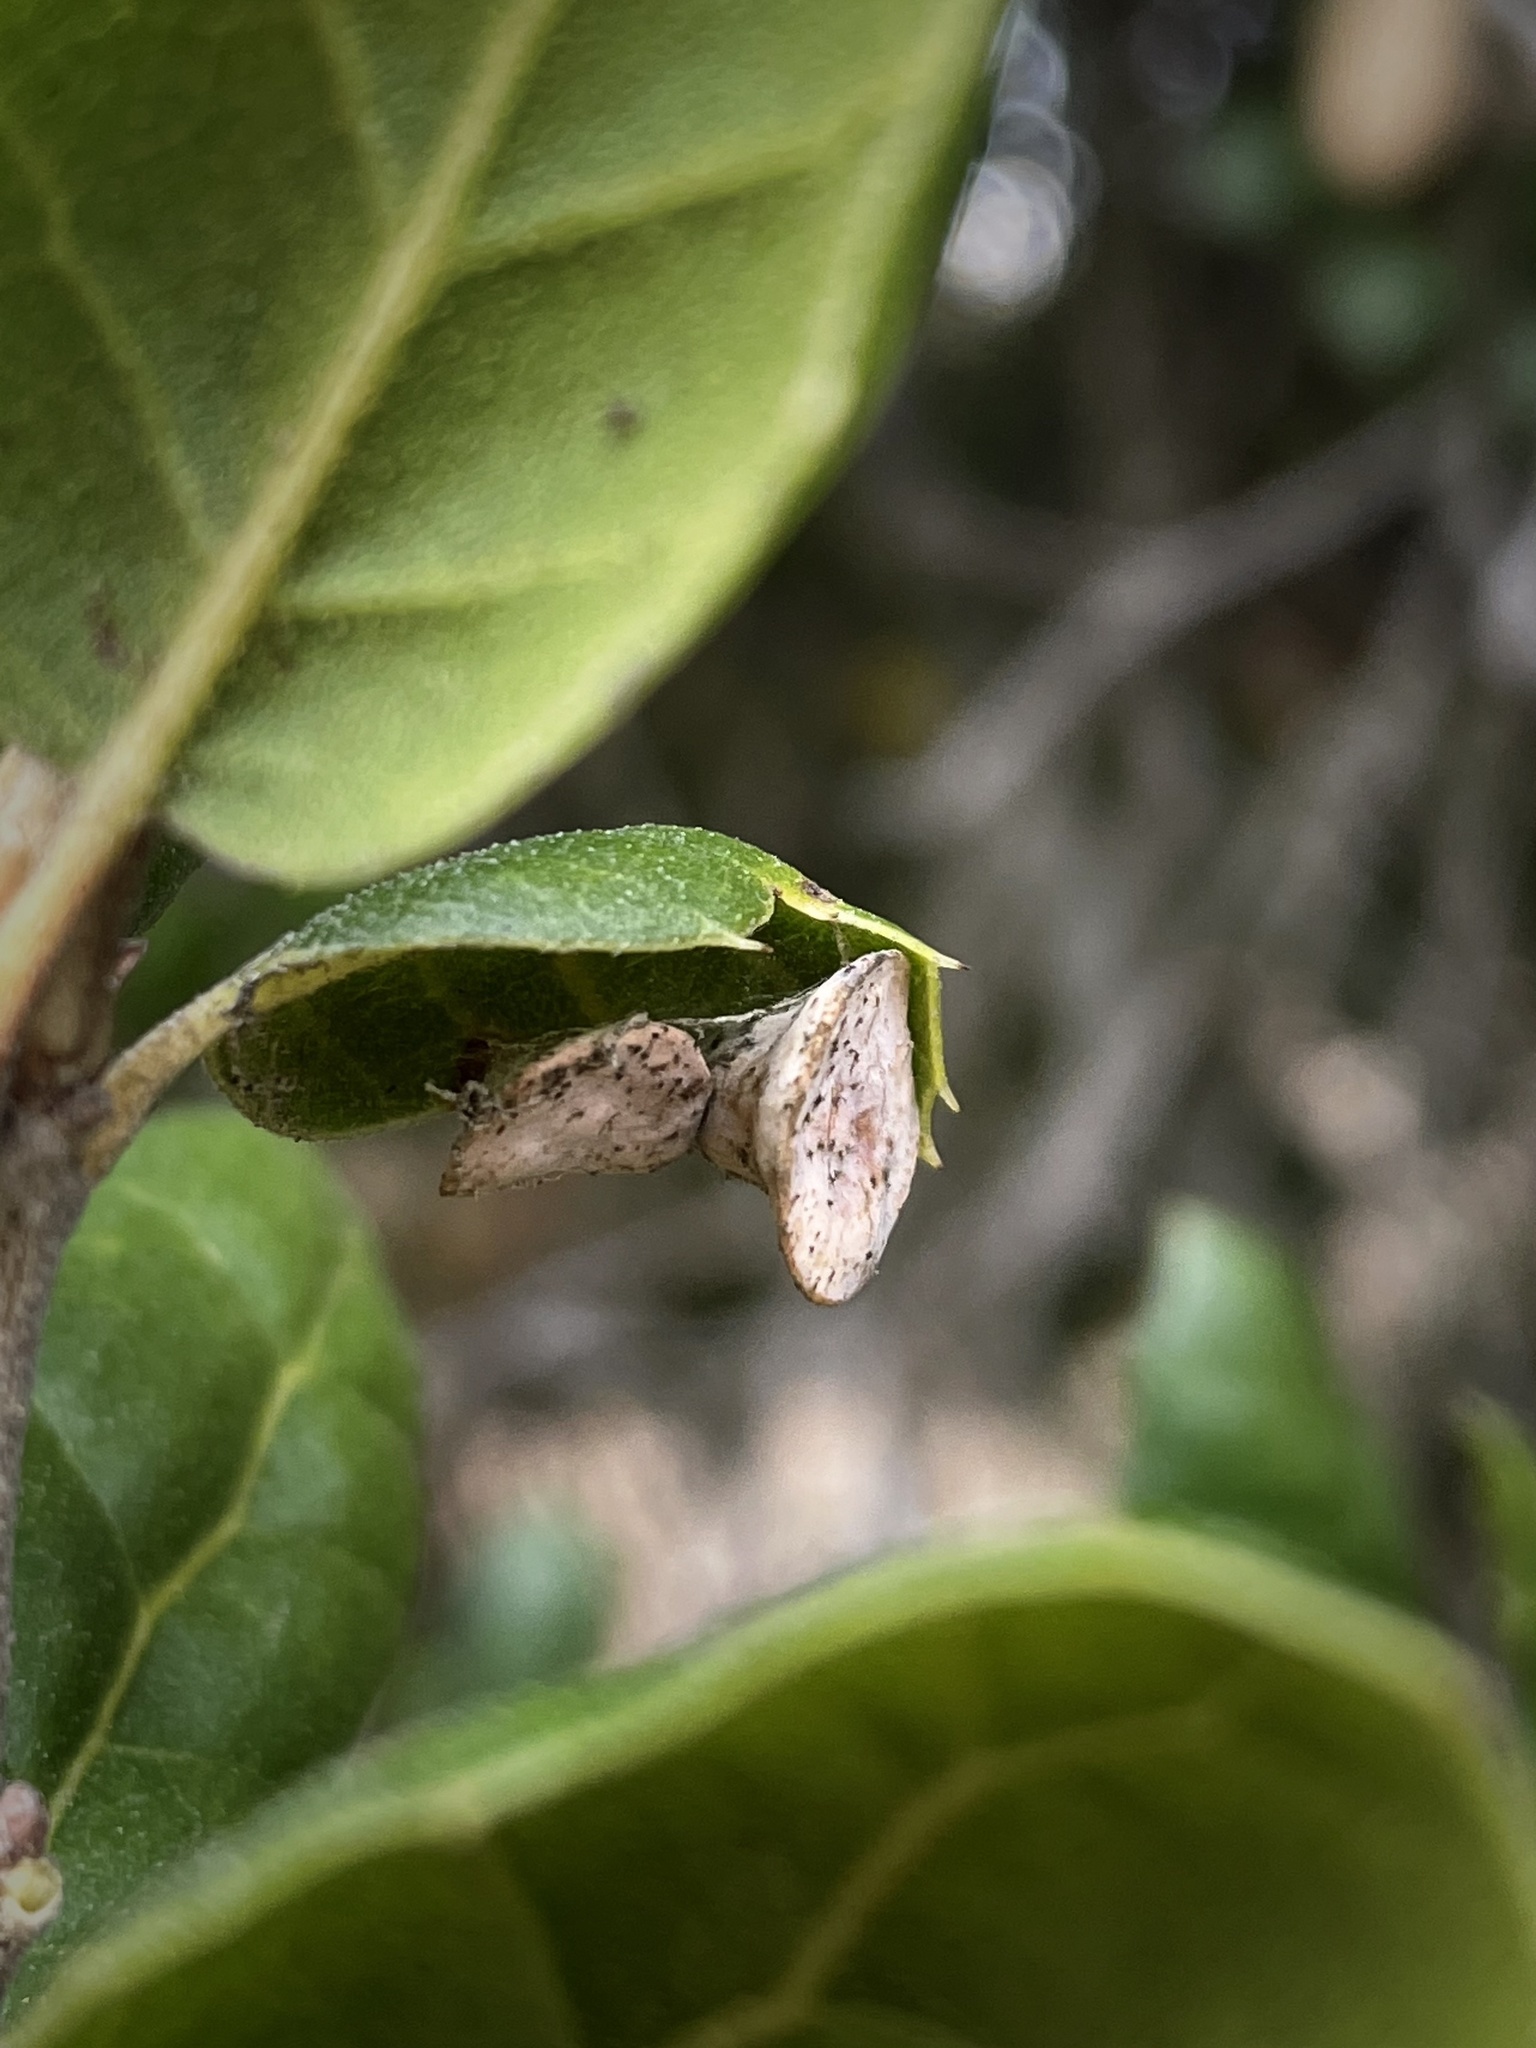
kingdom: Animalia
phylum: Arthropoda
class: Insecta
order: Hymenoptera
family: Cynipidae
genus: Amphibolips
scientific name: Amphibolips quercuspomiformis
